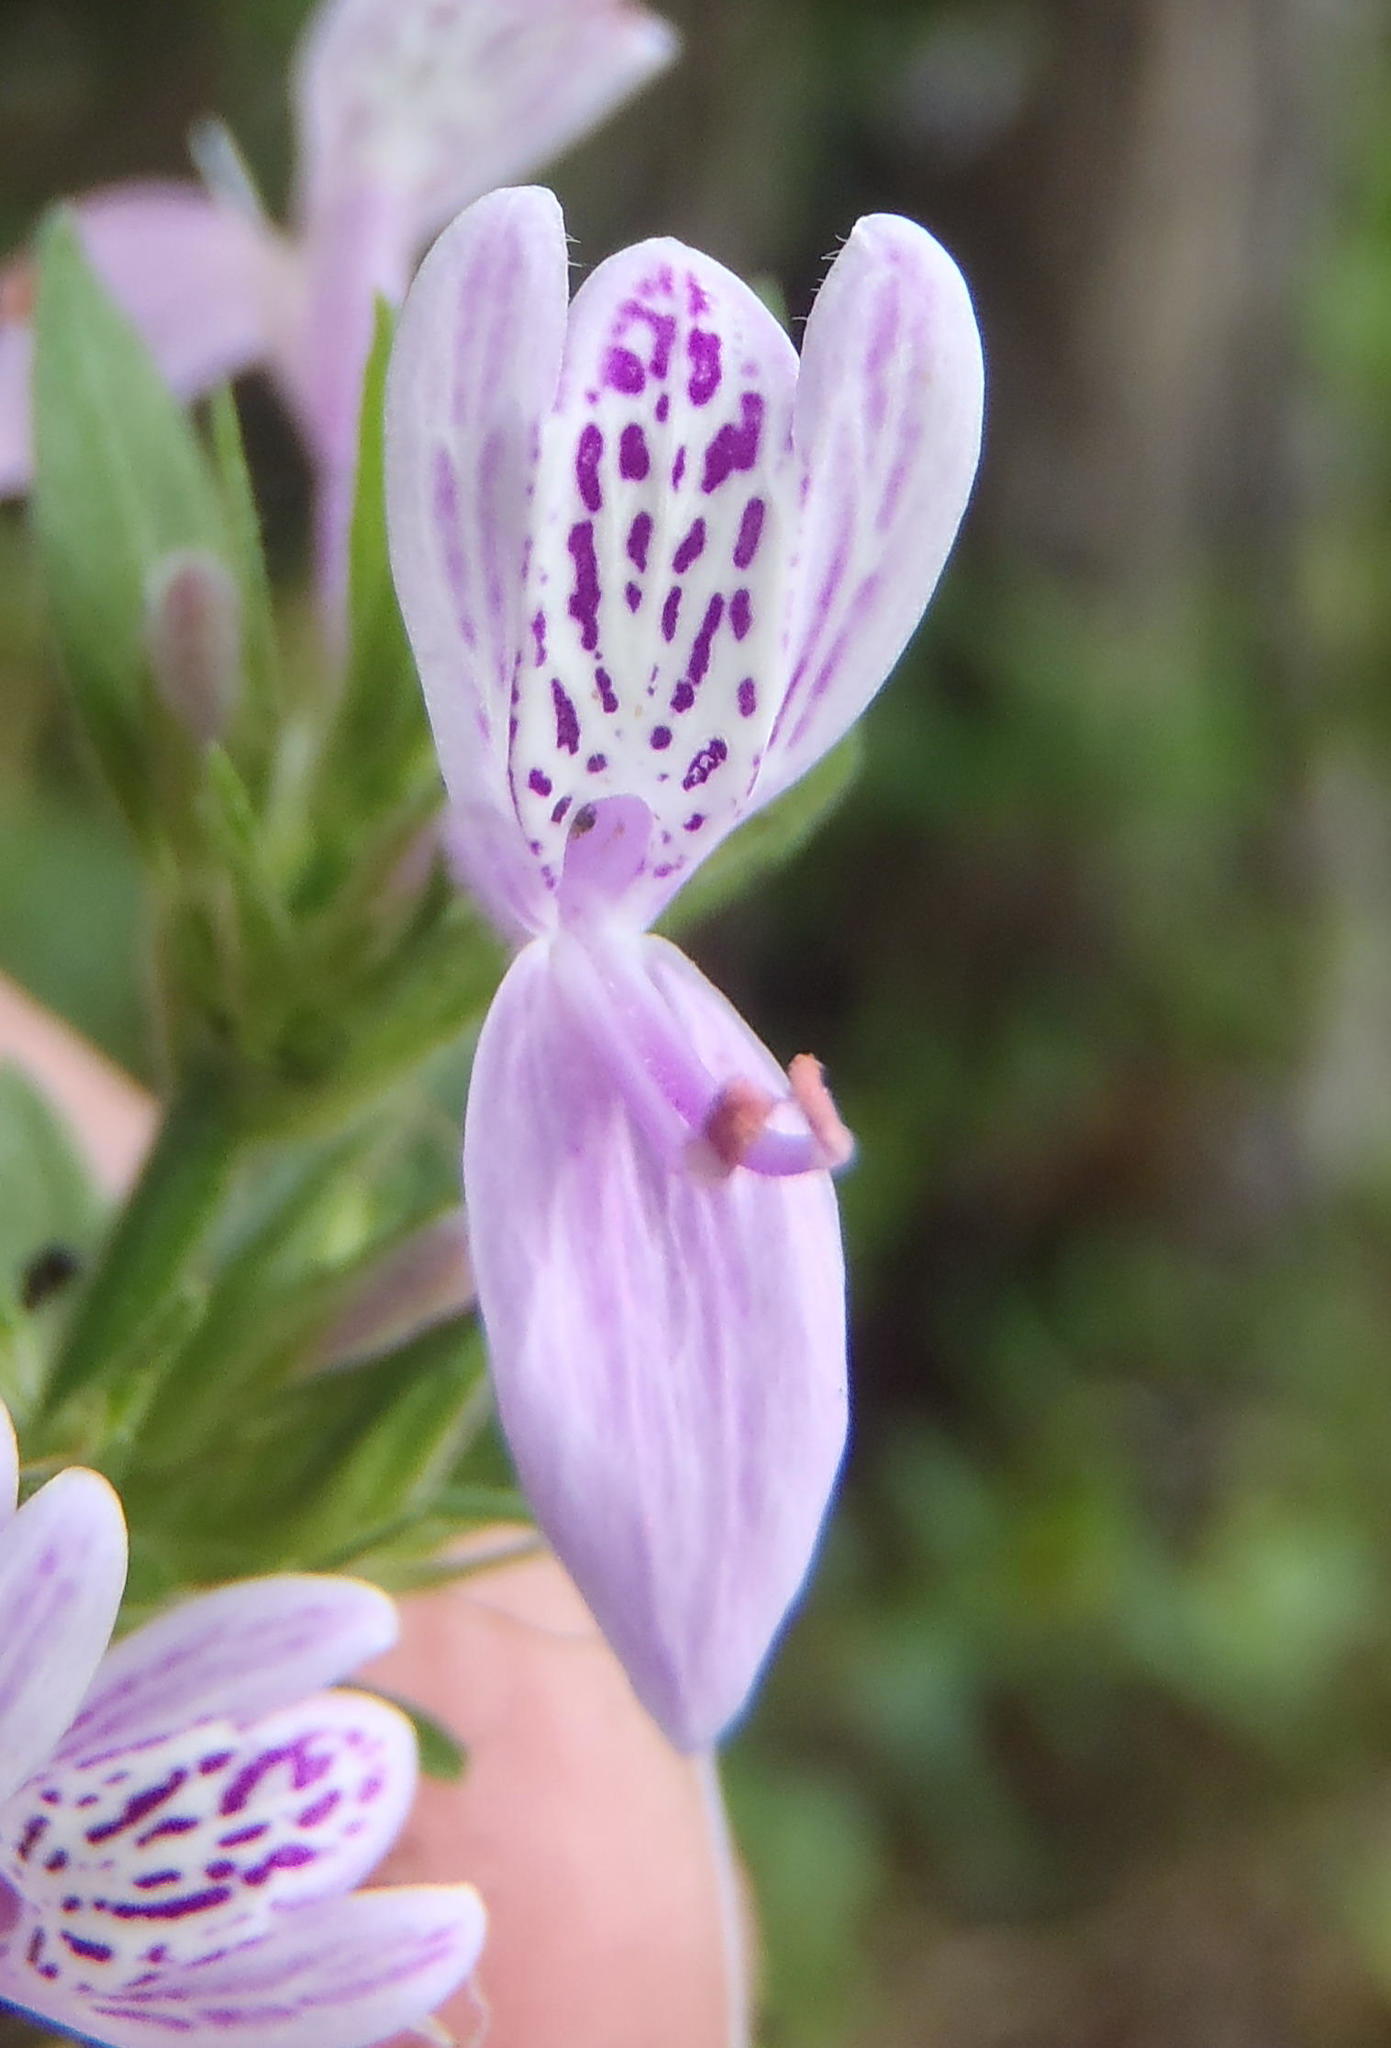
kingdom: Plantae
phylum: Tracheophyta
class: Magnoliopsida
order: Lamiales
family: Acanthaceae
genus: Hypoestes
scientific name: Hypoestes aristata
